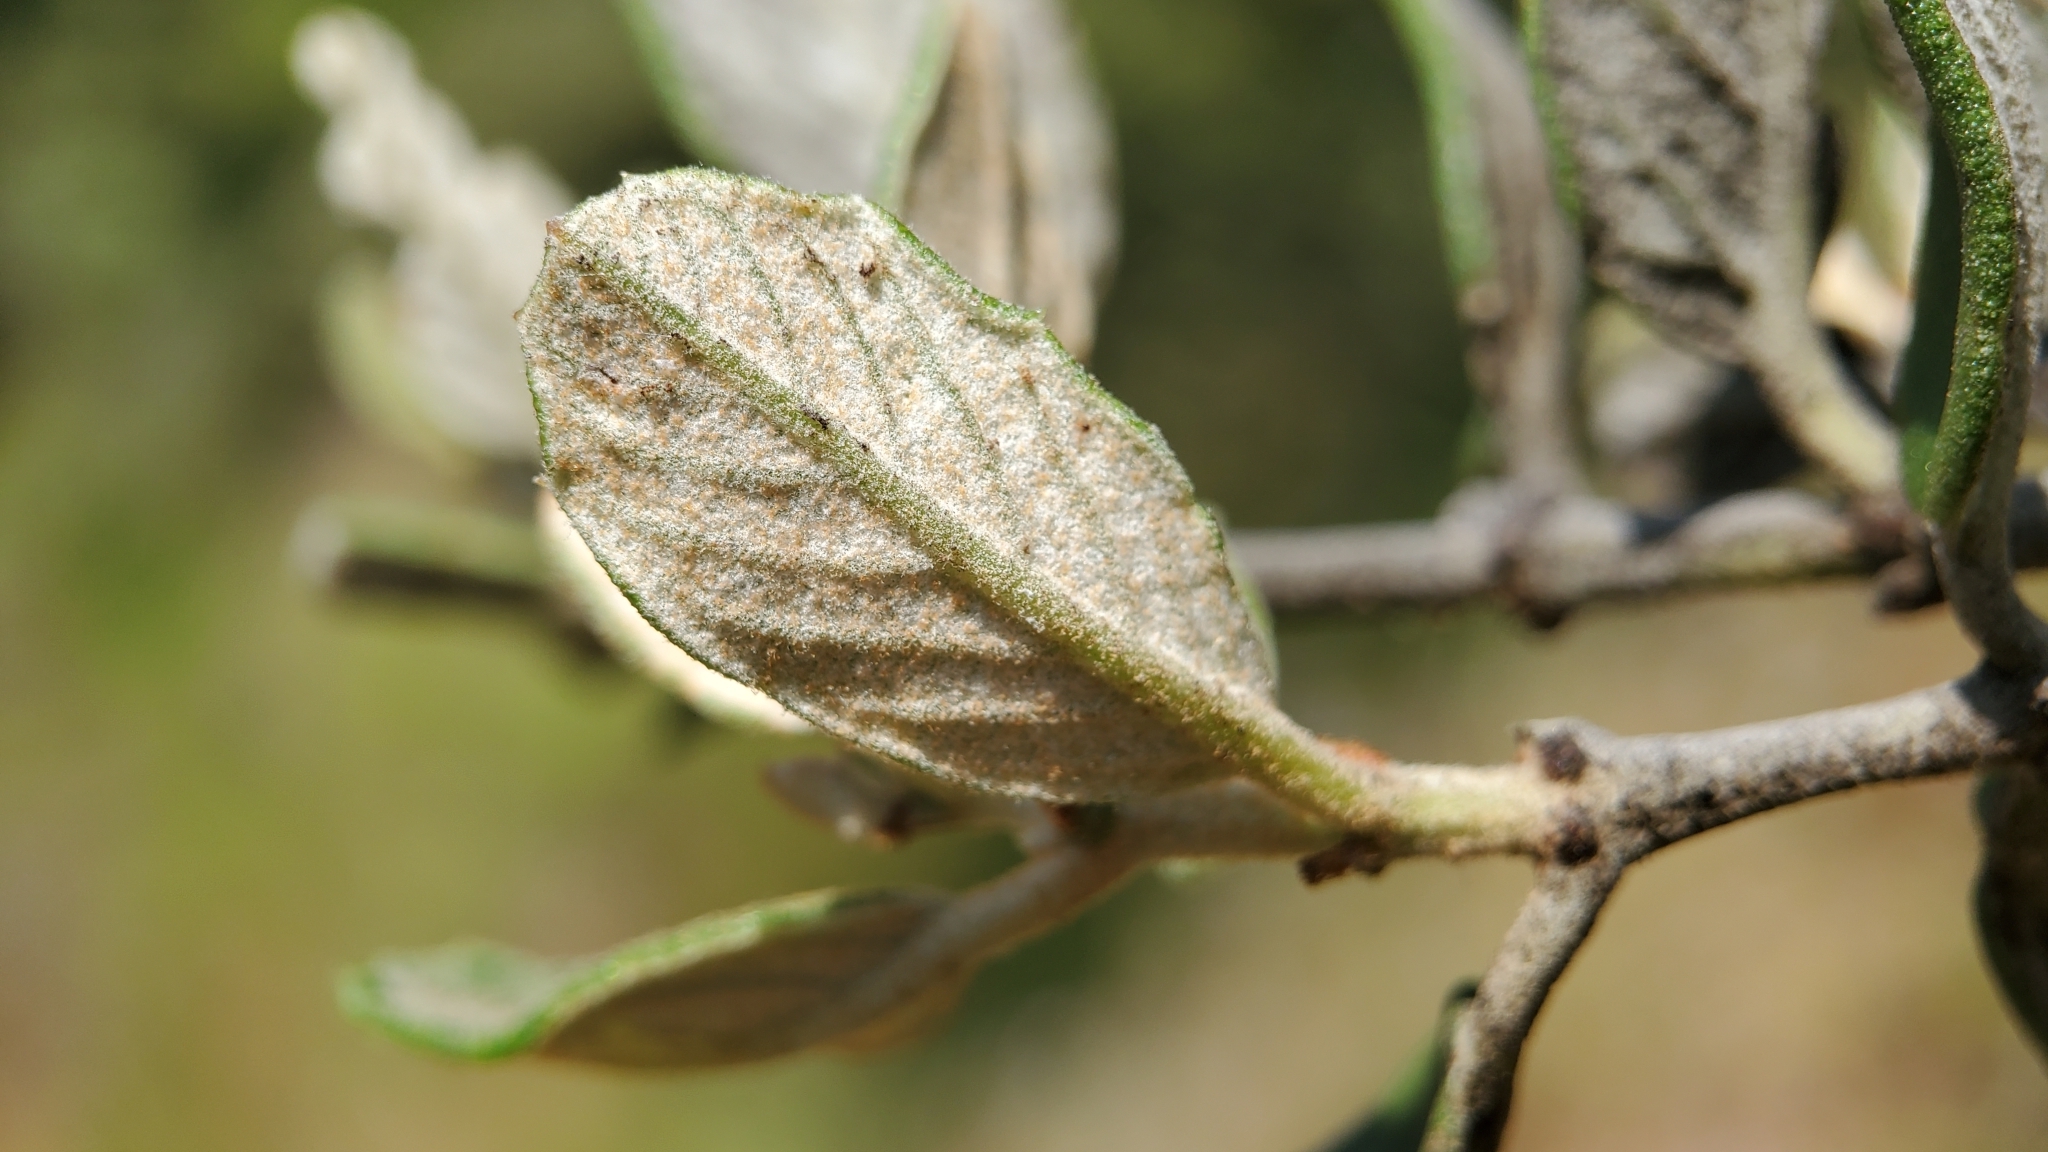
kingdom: Plantae
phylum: Tracheophyta
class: Magnoliopsida
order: Rosales
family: Rhamnaceae
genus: Ceanothus
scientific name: Ceanothus crassifolius
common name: Hoaryleaf ceanothus
